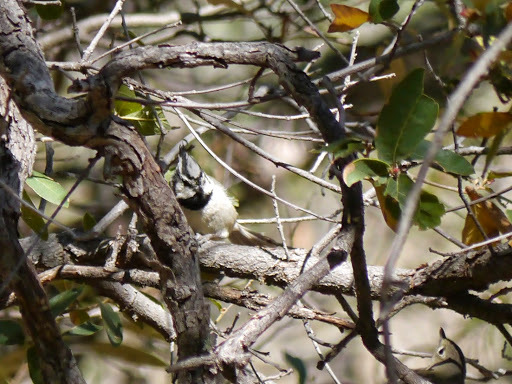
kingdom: Animalia
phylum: Chordata
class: Aves
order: Passeriformes
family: Paridae
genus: Baeolophus
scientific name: Baeolophus wollweberi
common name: Bridled titmouse
